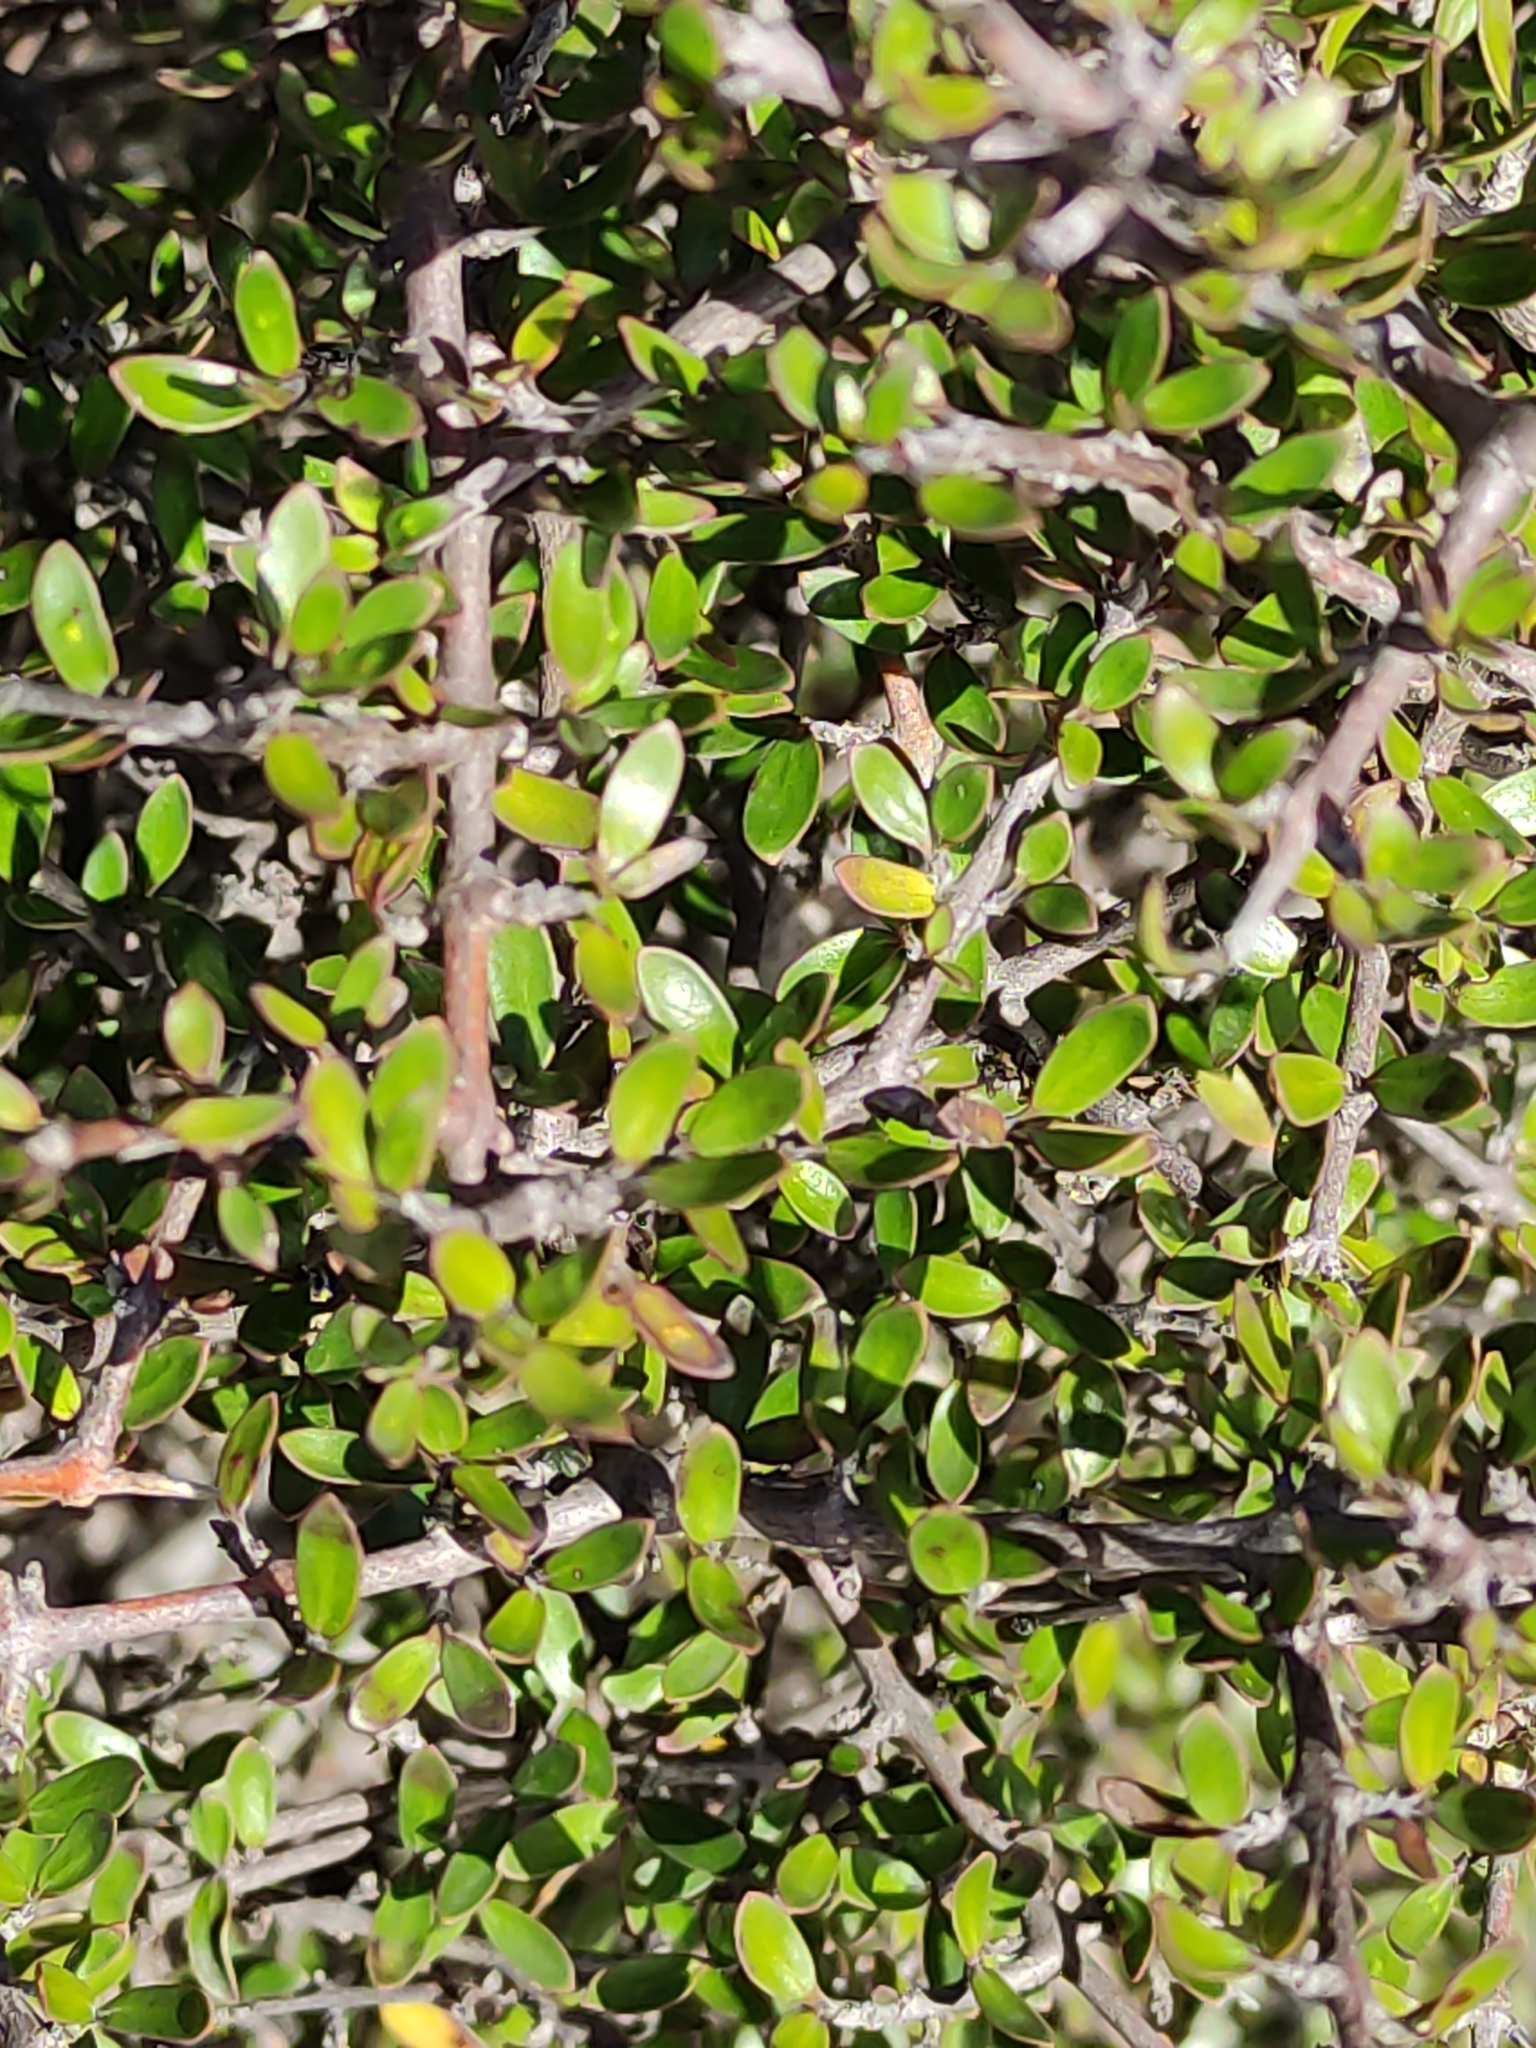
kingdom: Plantae
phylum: Tracheophyta
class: Magnoliopsida
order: Gentianales
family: Rubiaceae
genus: Coprosma
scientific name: Coprosma propinqua
